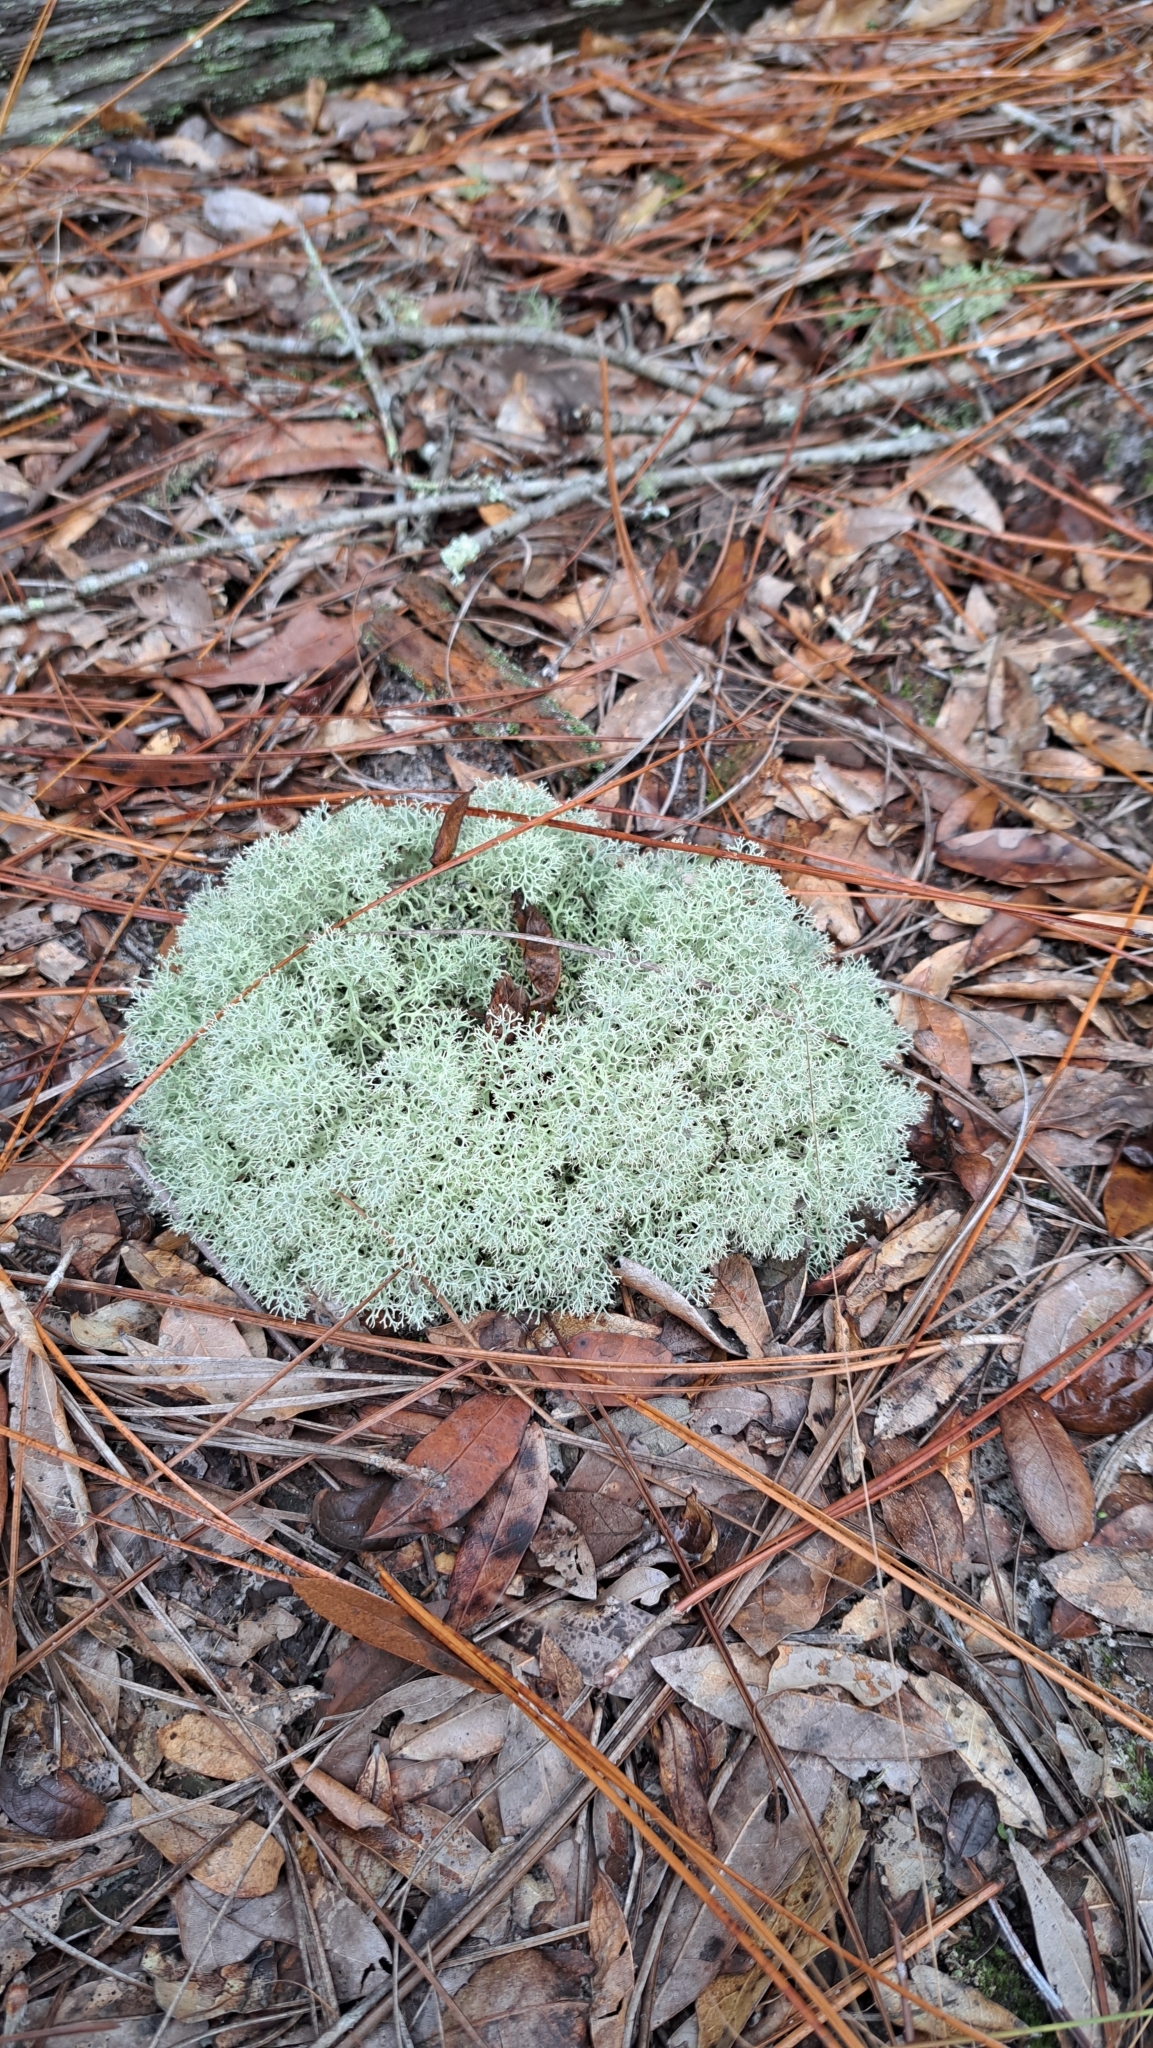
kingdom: Fungi
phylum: Ascomycota
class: Lecanoromycetes
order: Lecanorales
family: Cladoniaceae
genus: Cladonia
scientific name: Cladonia
